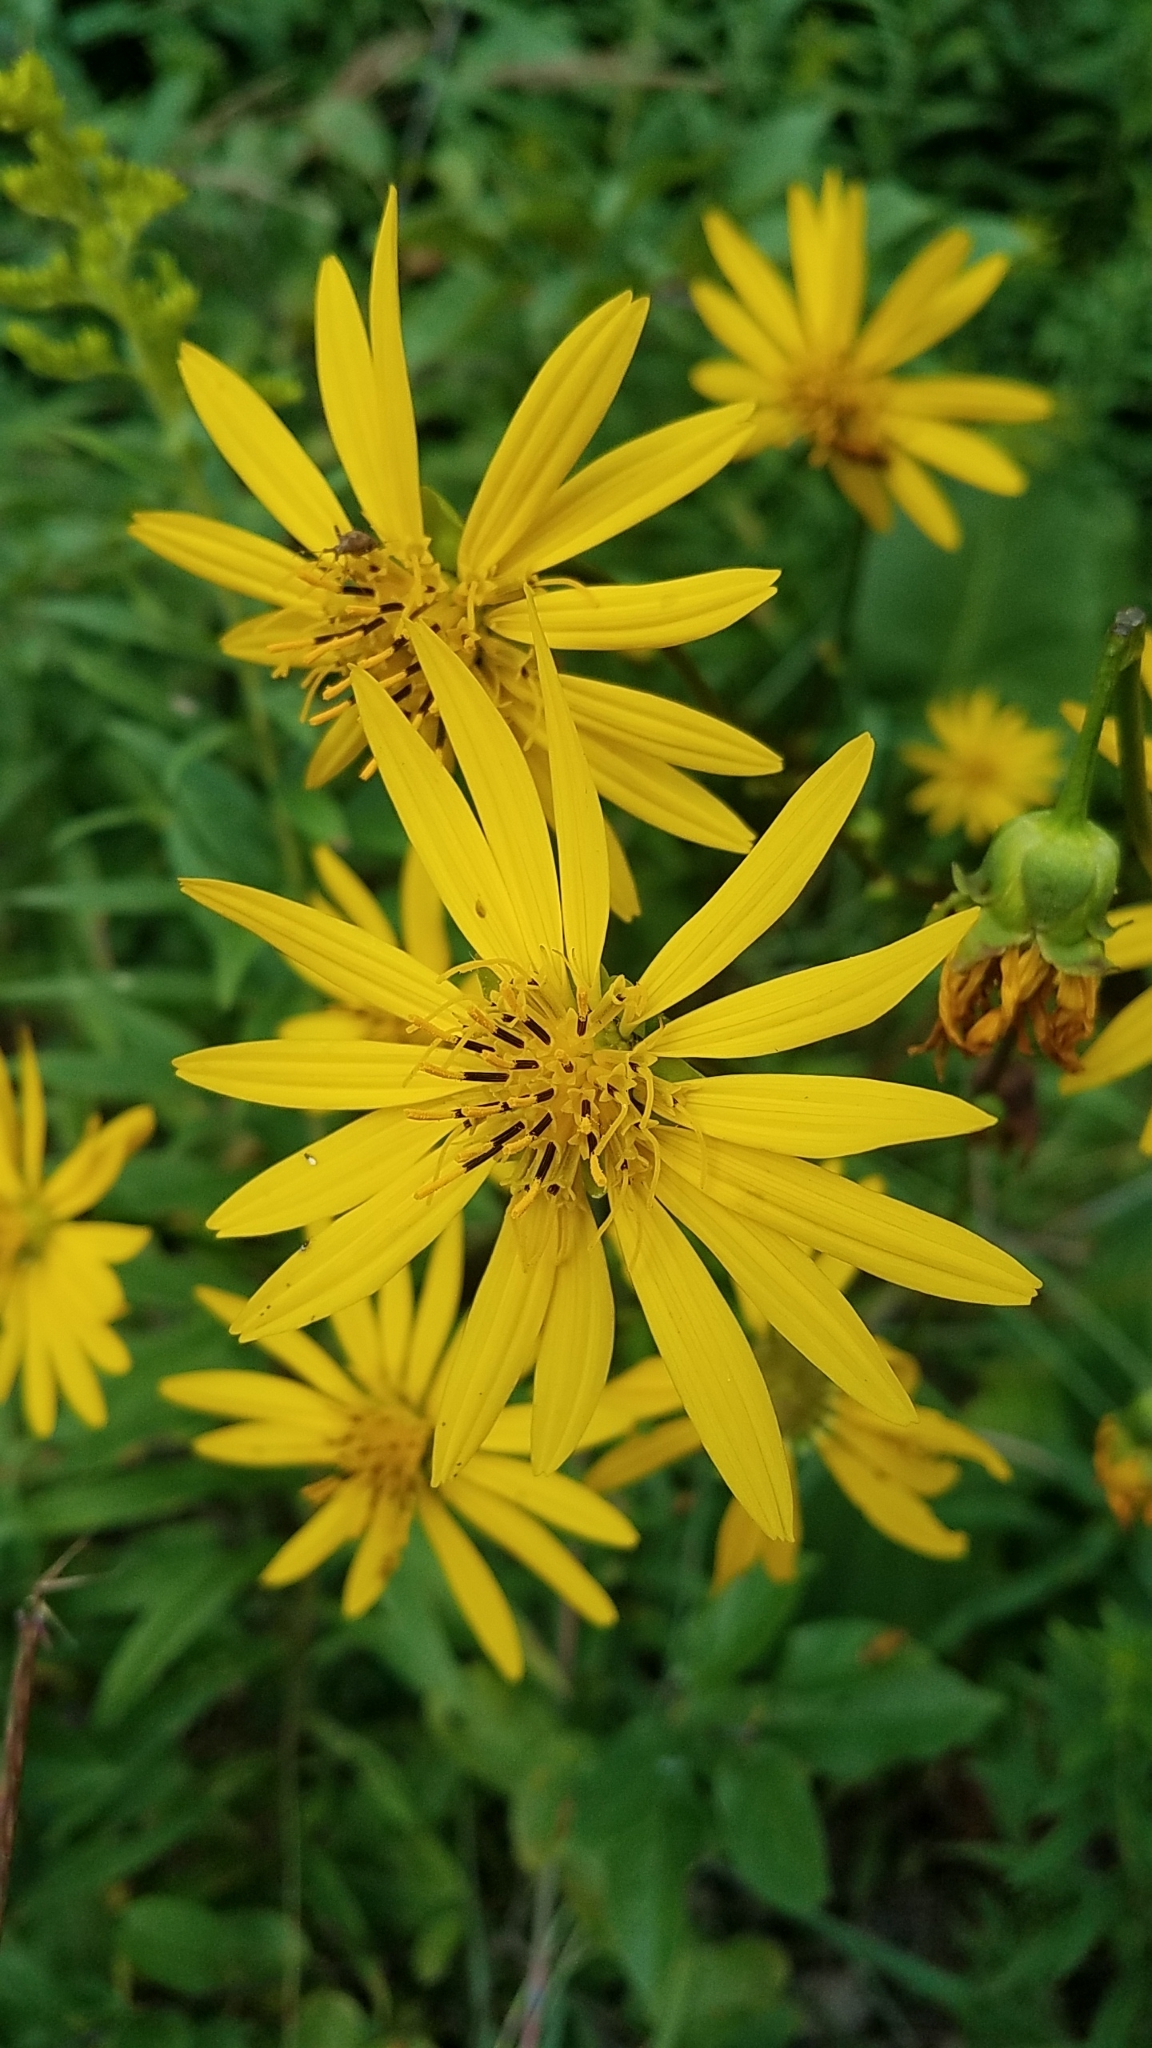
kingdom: Plantae
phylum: Tracheophyta
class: Magnoliopsida
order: Asterales
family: Asteraceae
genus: Silphium
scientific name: Silphium terebinthinaceum
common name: Basal-leaf rosinweed
